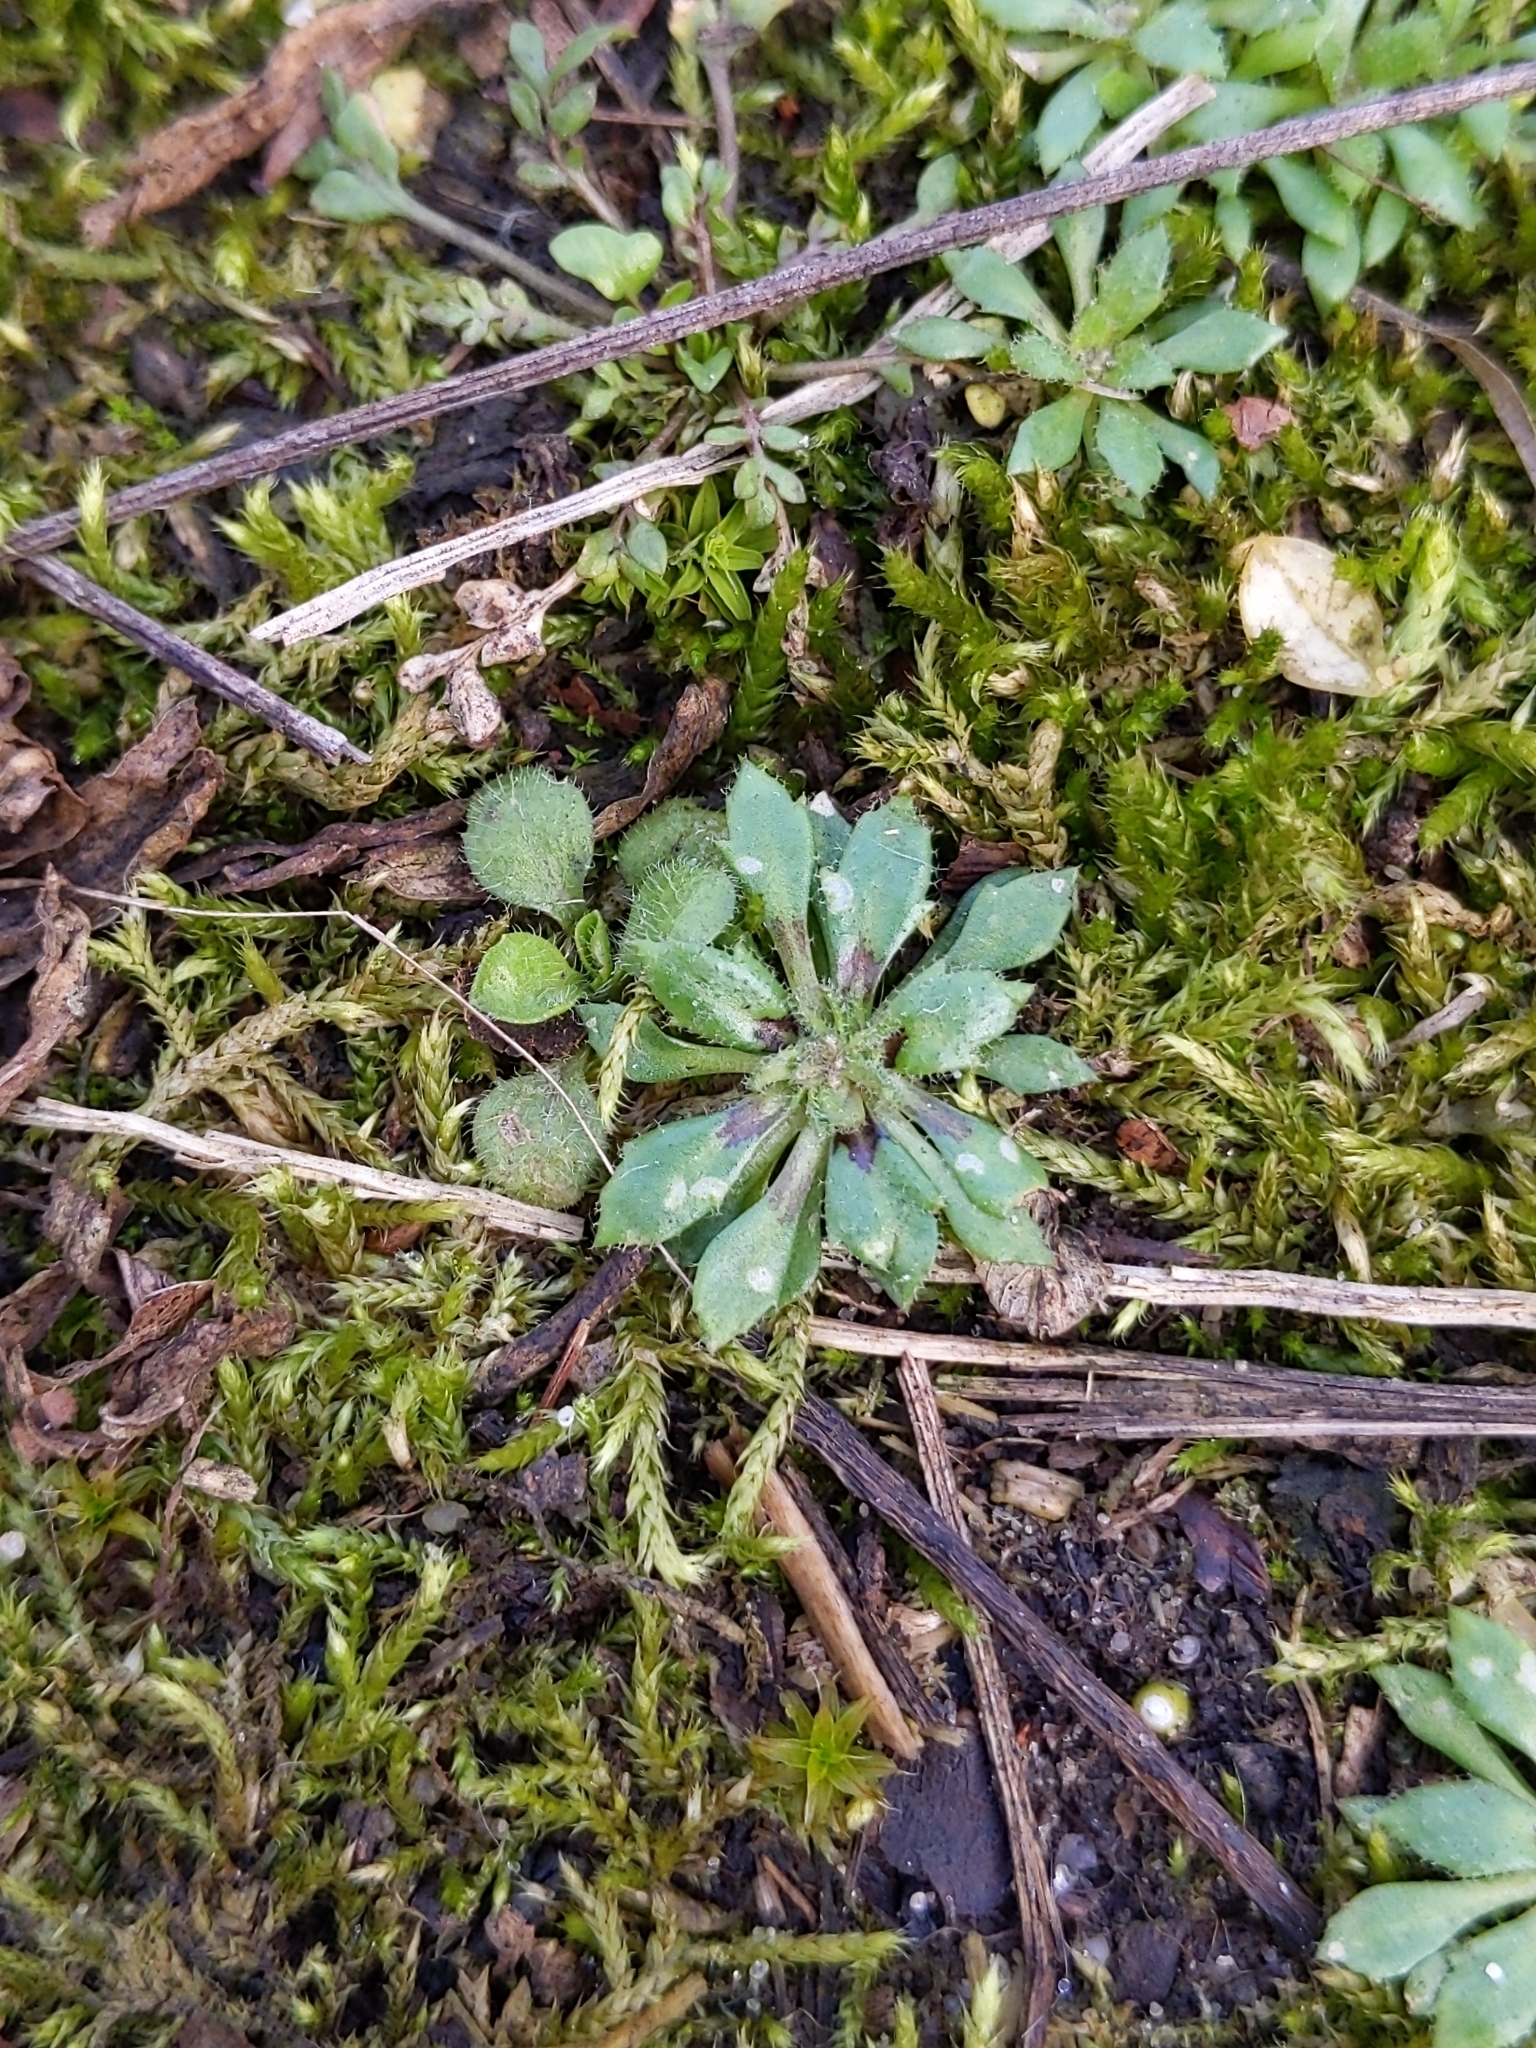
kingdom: Plantae
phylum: Tracheophyta
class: Magnoliopsida
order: Brassicales
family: Brassicaceae
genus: Draba
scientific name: Draba verna
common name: Spring draba
